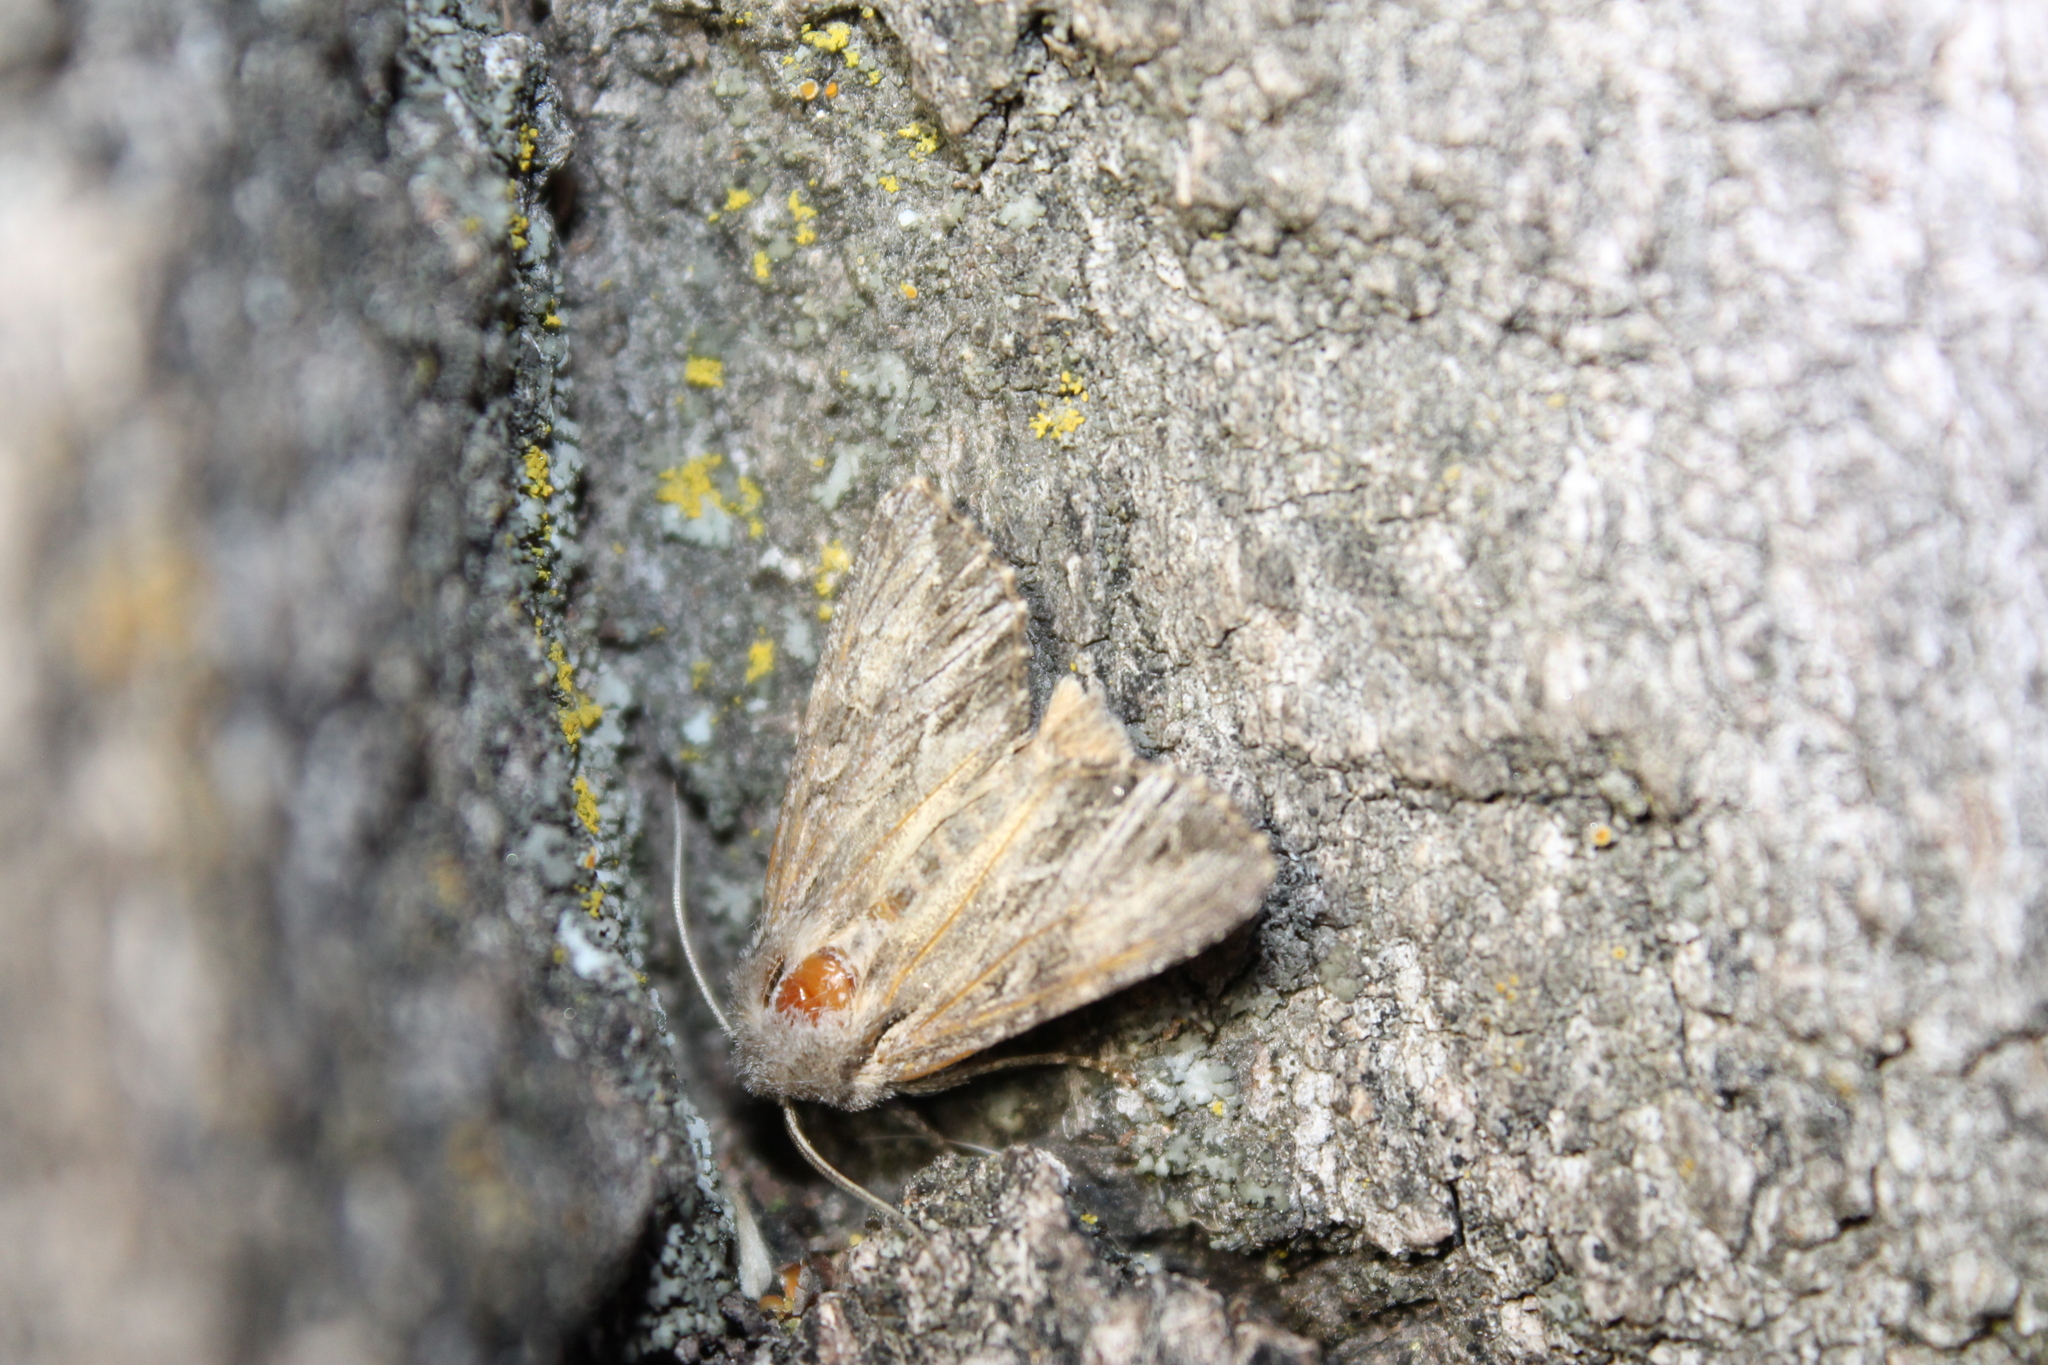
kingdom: Animalia
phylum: Arthropoda
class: Insecta
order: Lepidoptera
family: Noctuidae
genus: Apamea
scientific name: Apamea cinefacta
